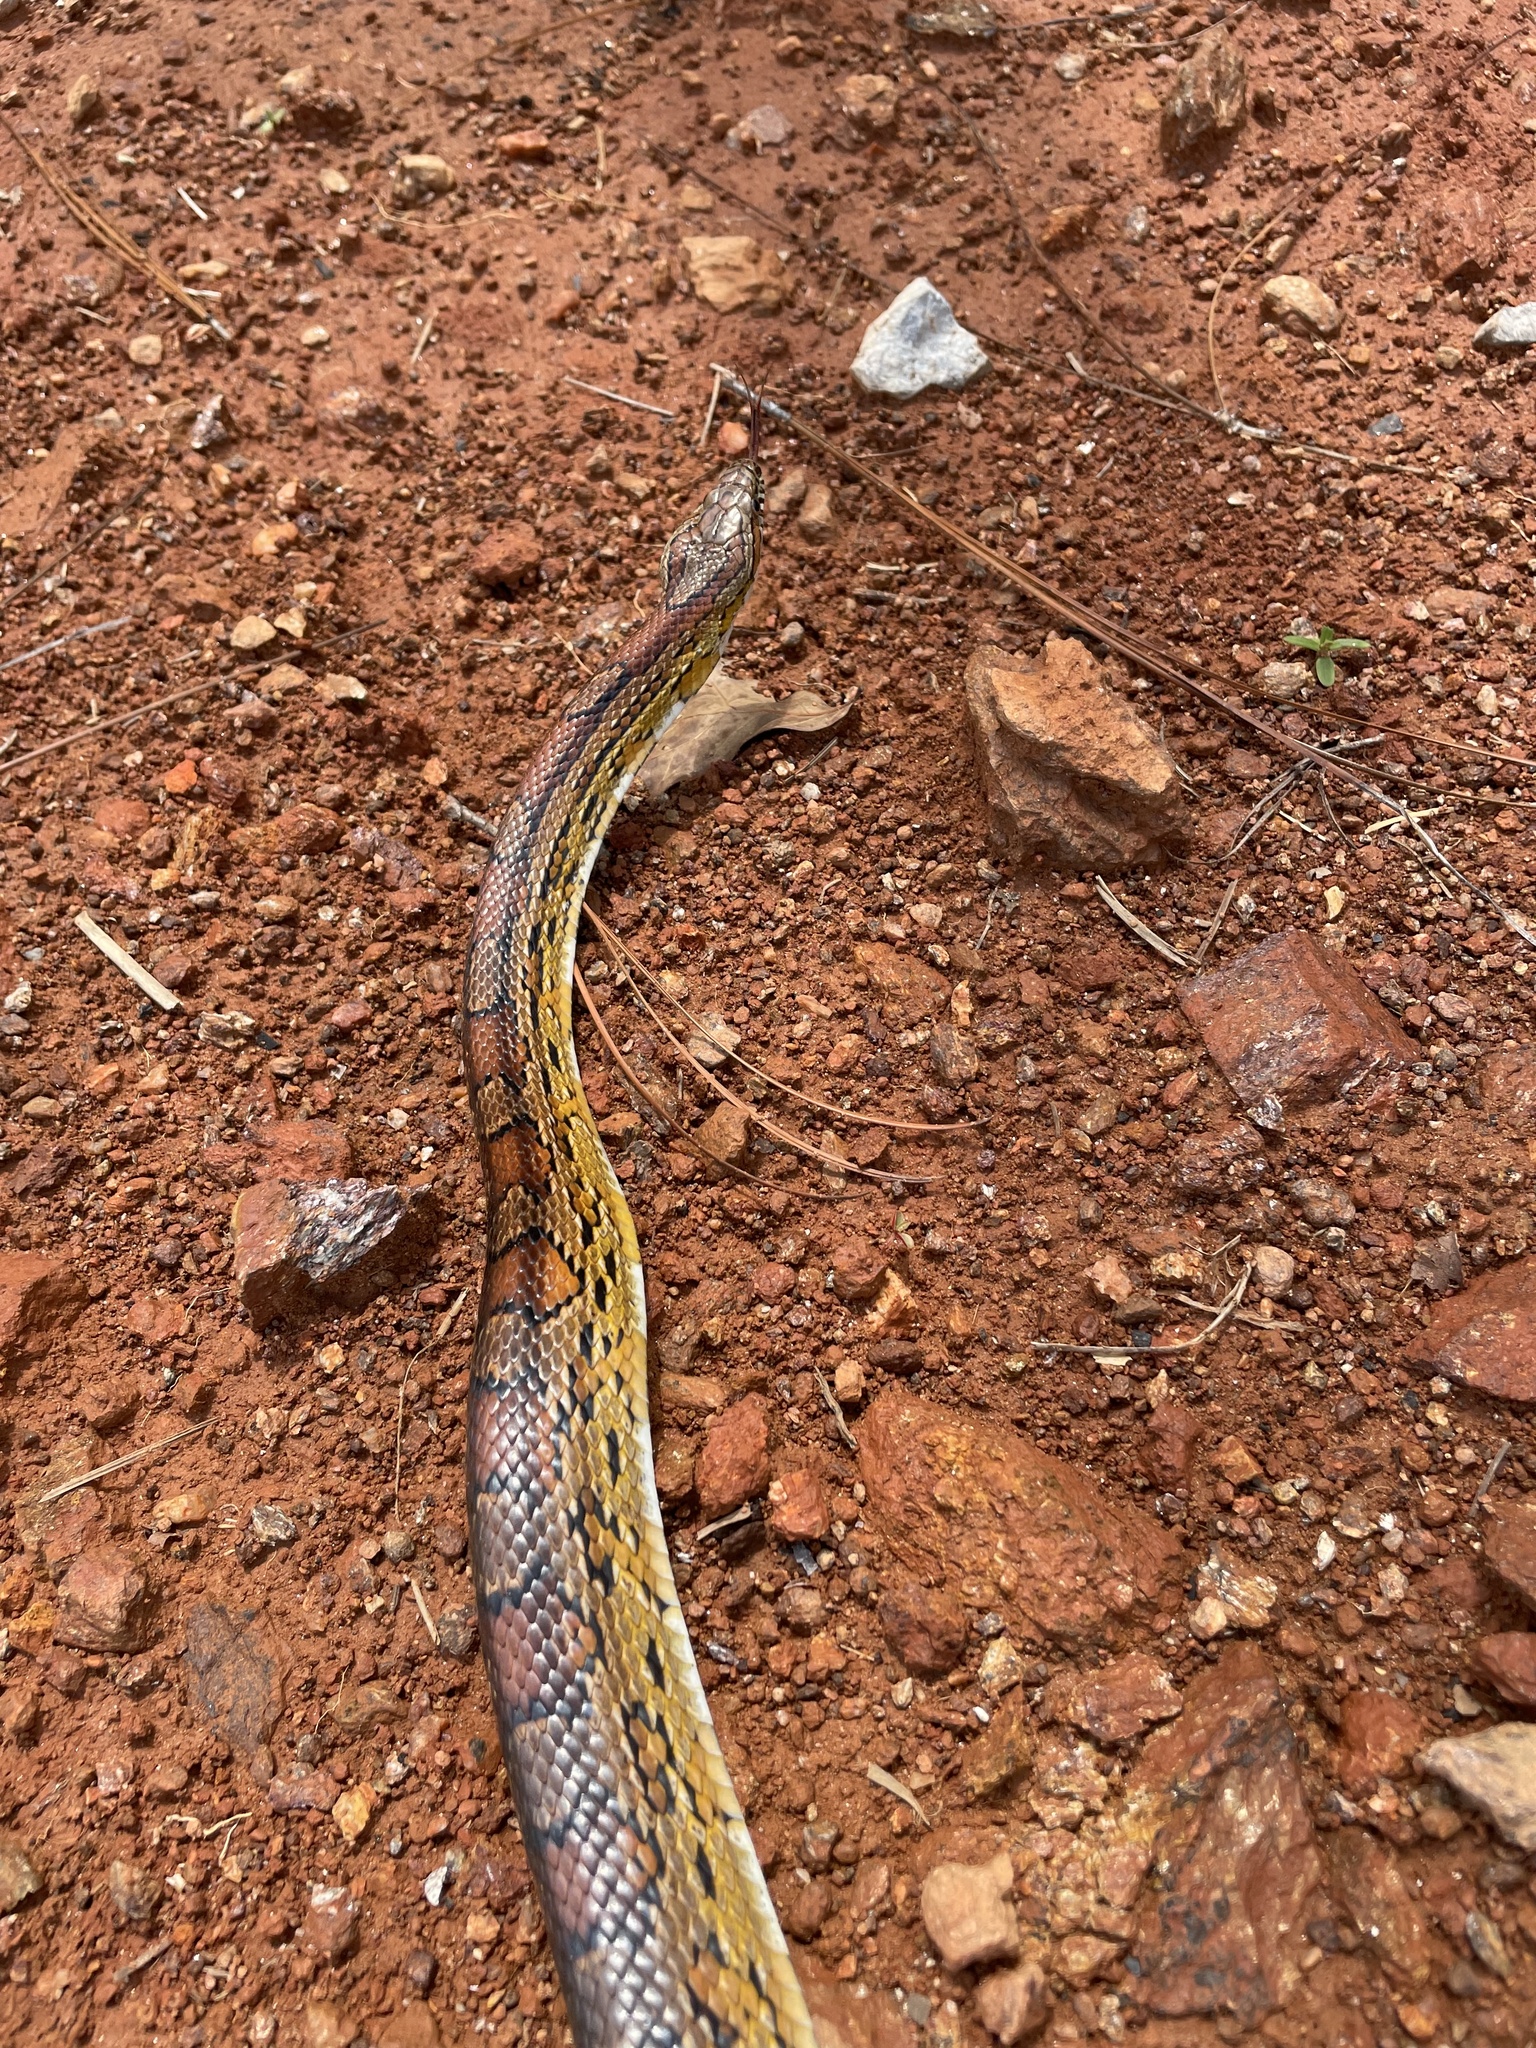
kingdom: Animalia
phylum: Chordata
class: Squamata
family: Colubridae
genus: Pantherophis
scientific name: Pantherophis guttatus
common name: Red cornsnake
